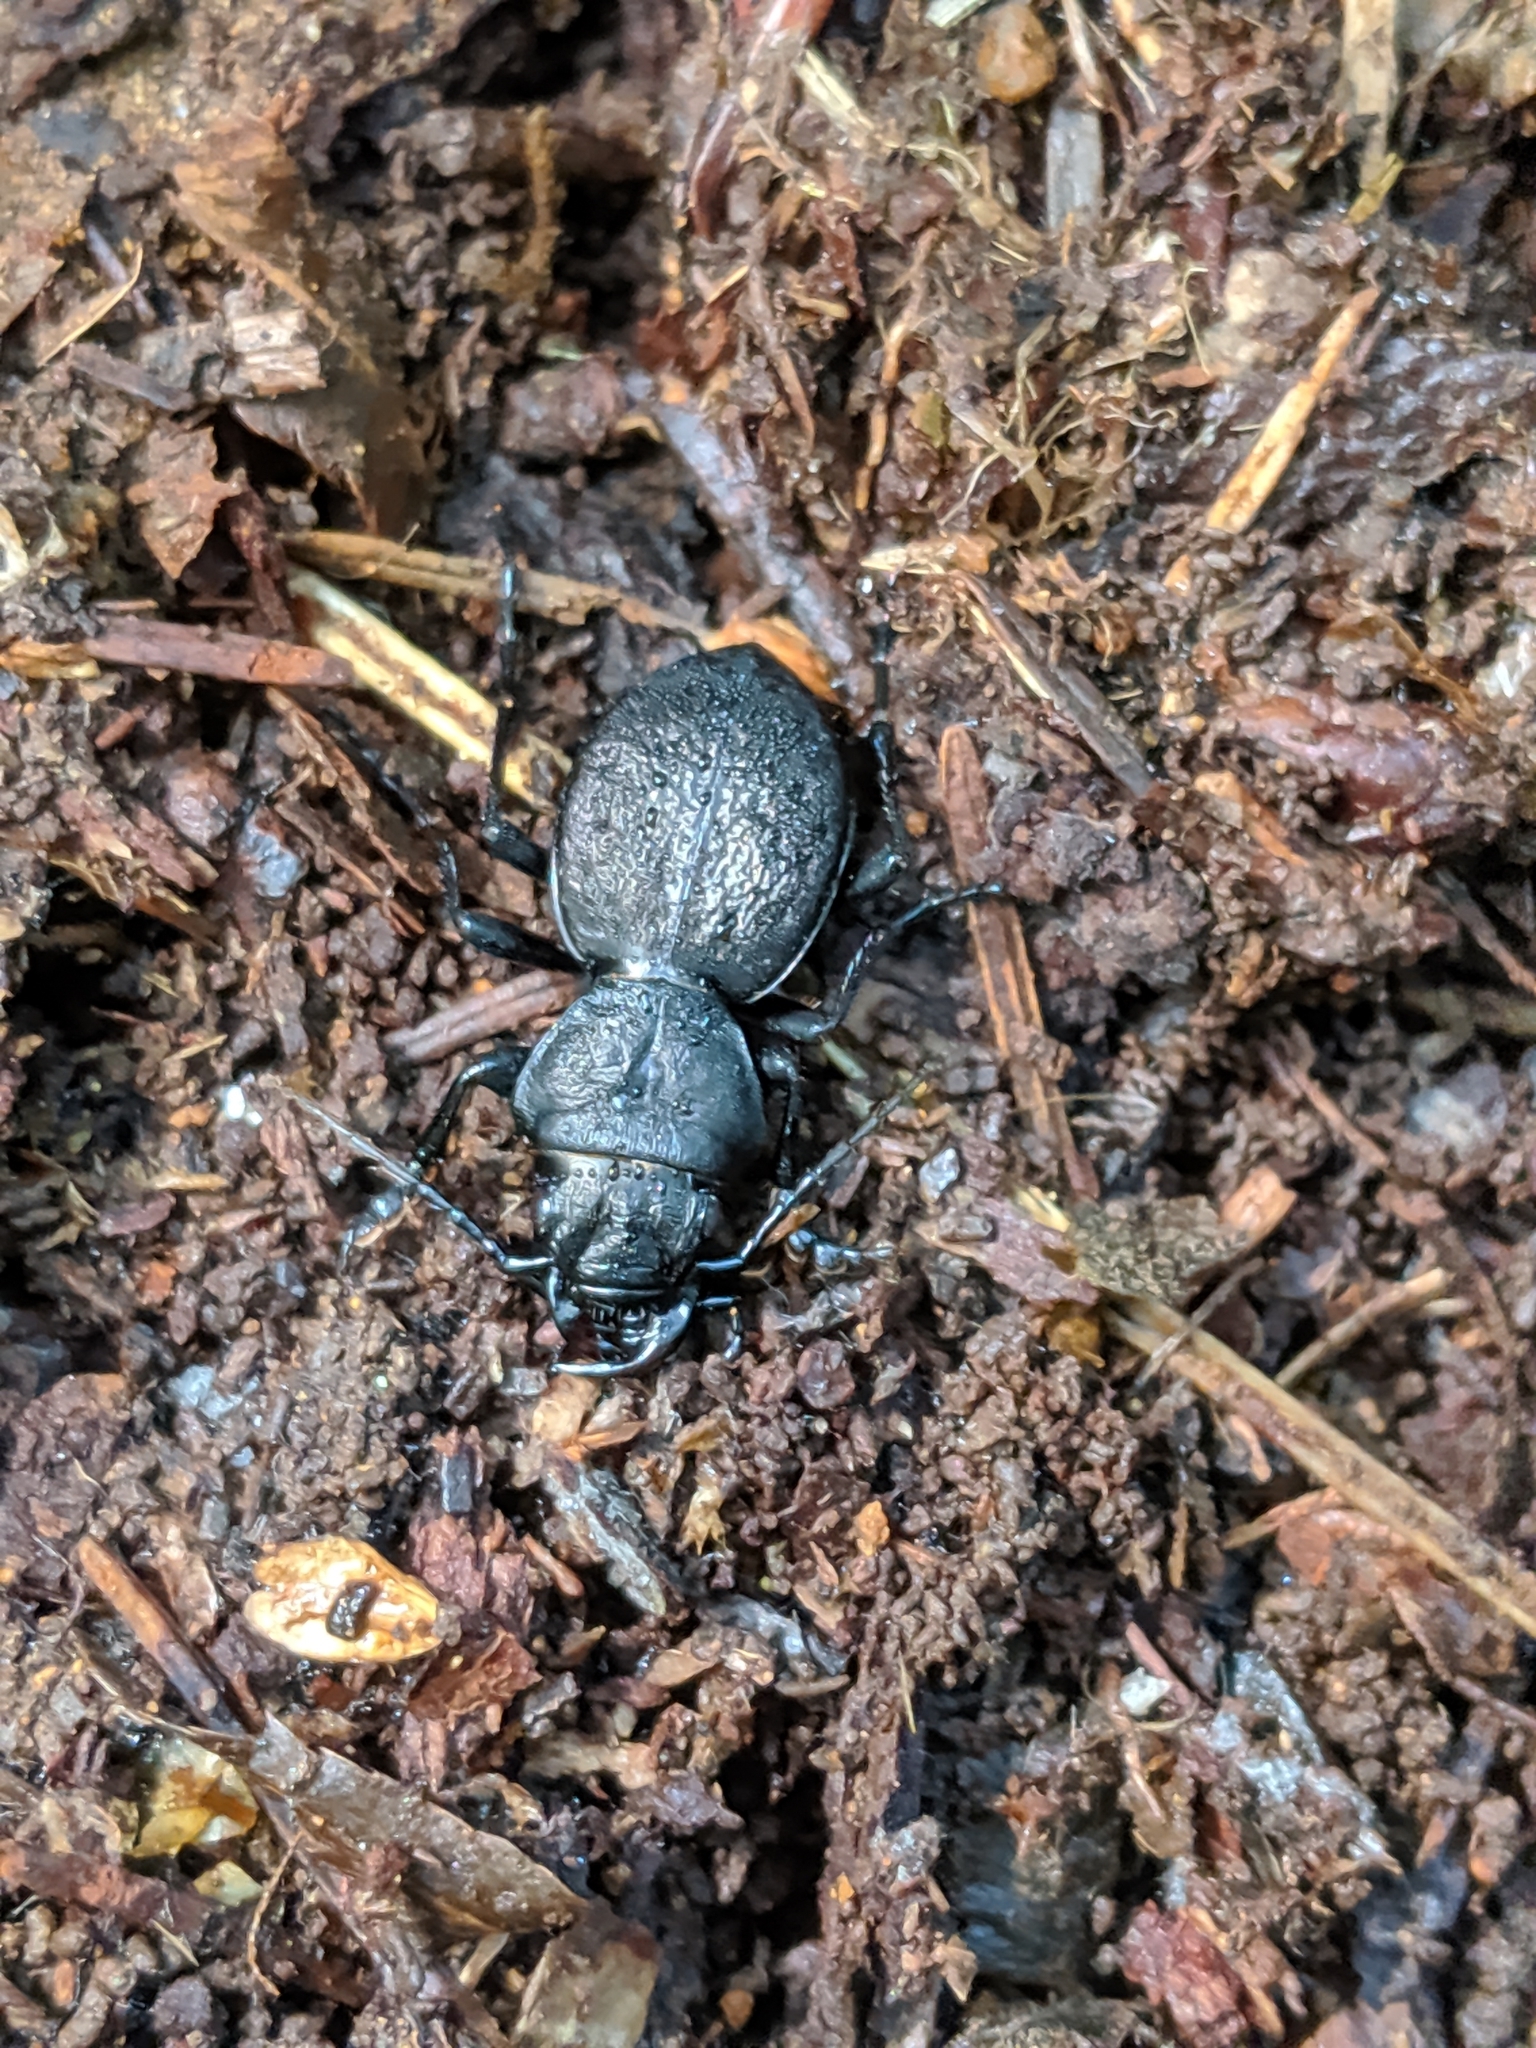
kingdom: Animalia
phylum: Arthropoda
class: Insecta
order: Coleoptera
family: Carabidae
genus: Omus
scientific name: Omus dejeanii
